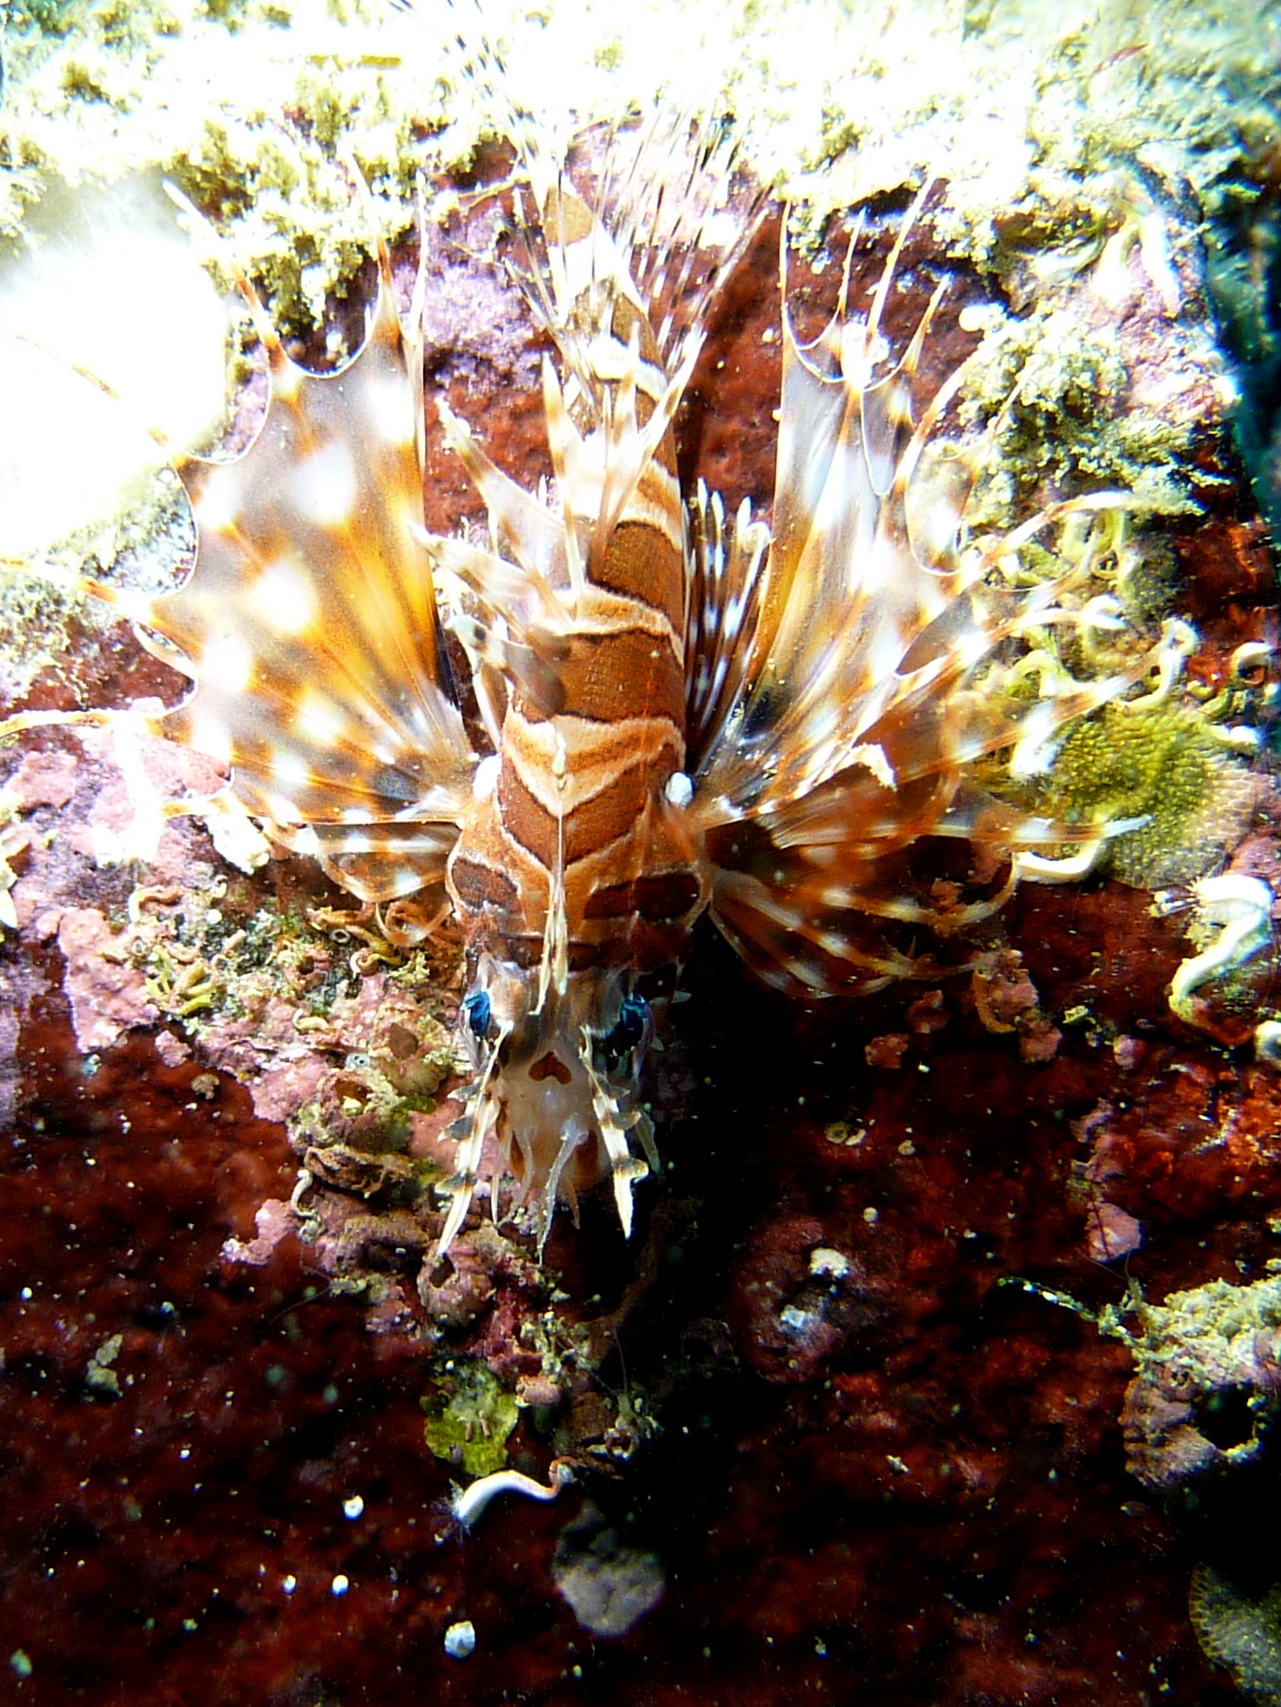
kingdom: Animalia
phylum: Chordata
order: Scorpaeniformes
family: Scorpaenidae
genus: Dendrochirus
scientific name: Dendrochirus zebra
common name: Zebra lionfish
